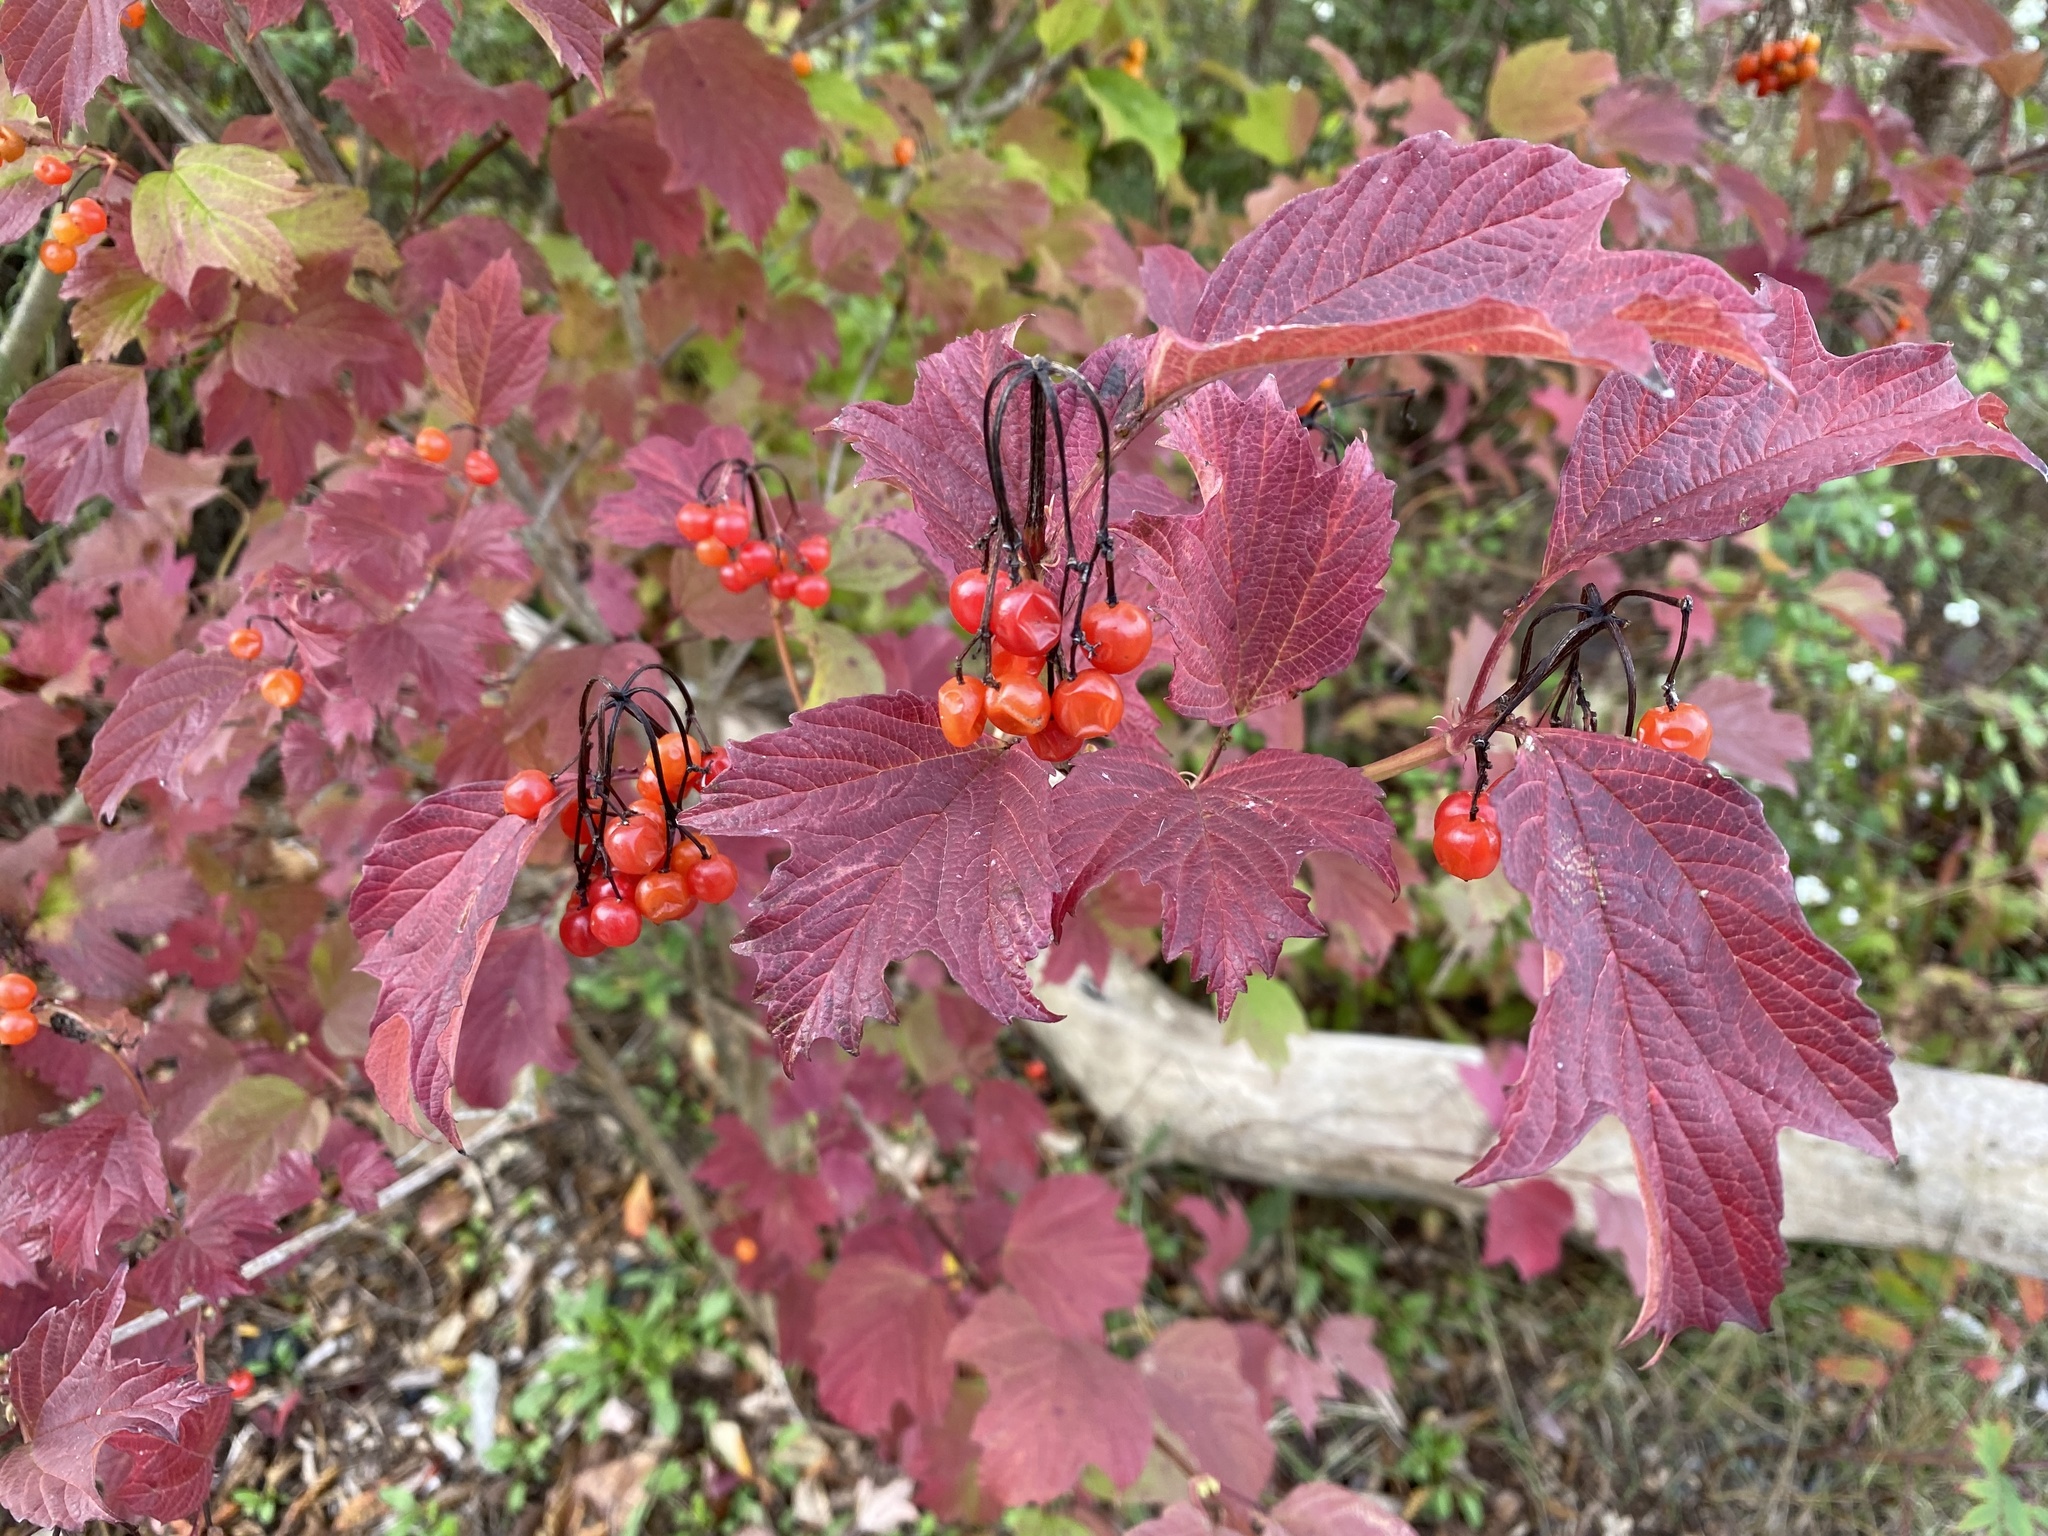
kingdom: Plantae
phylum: Tracheophyta
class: Magnoliopsida
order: Dipsacales
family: Viburnaceae
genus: Viburnum
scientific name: Viburnum opulus
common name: Guelder-rose
